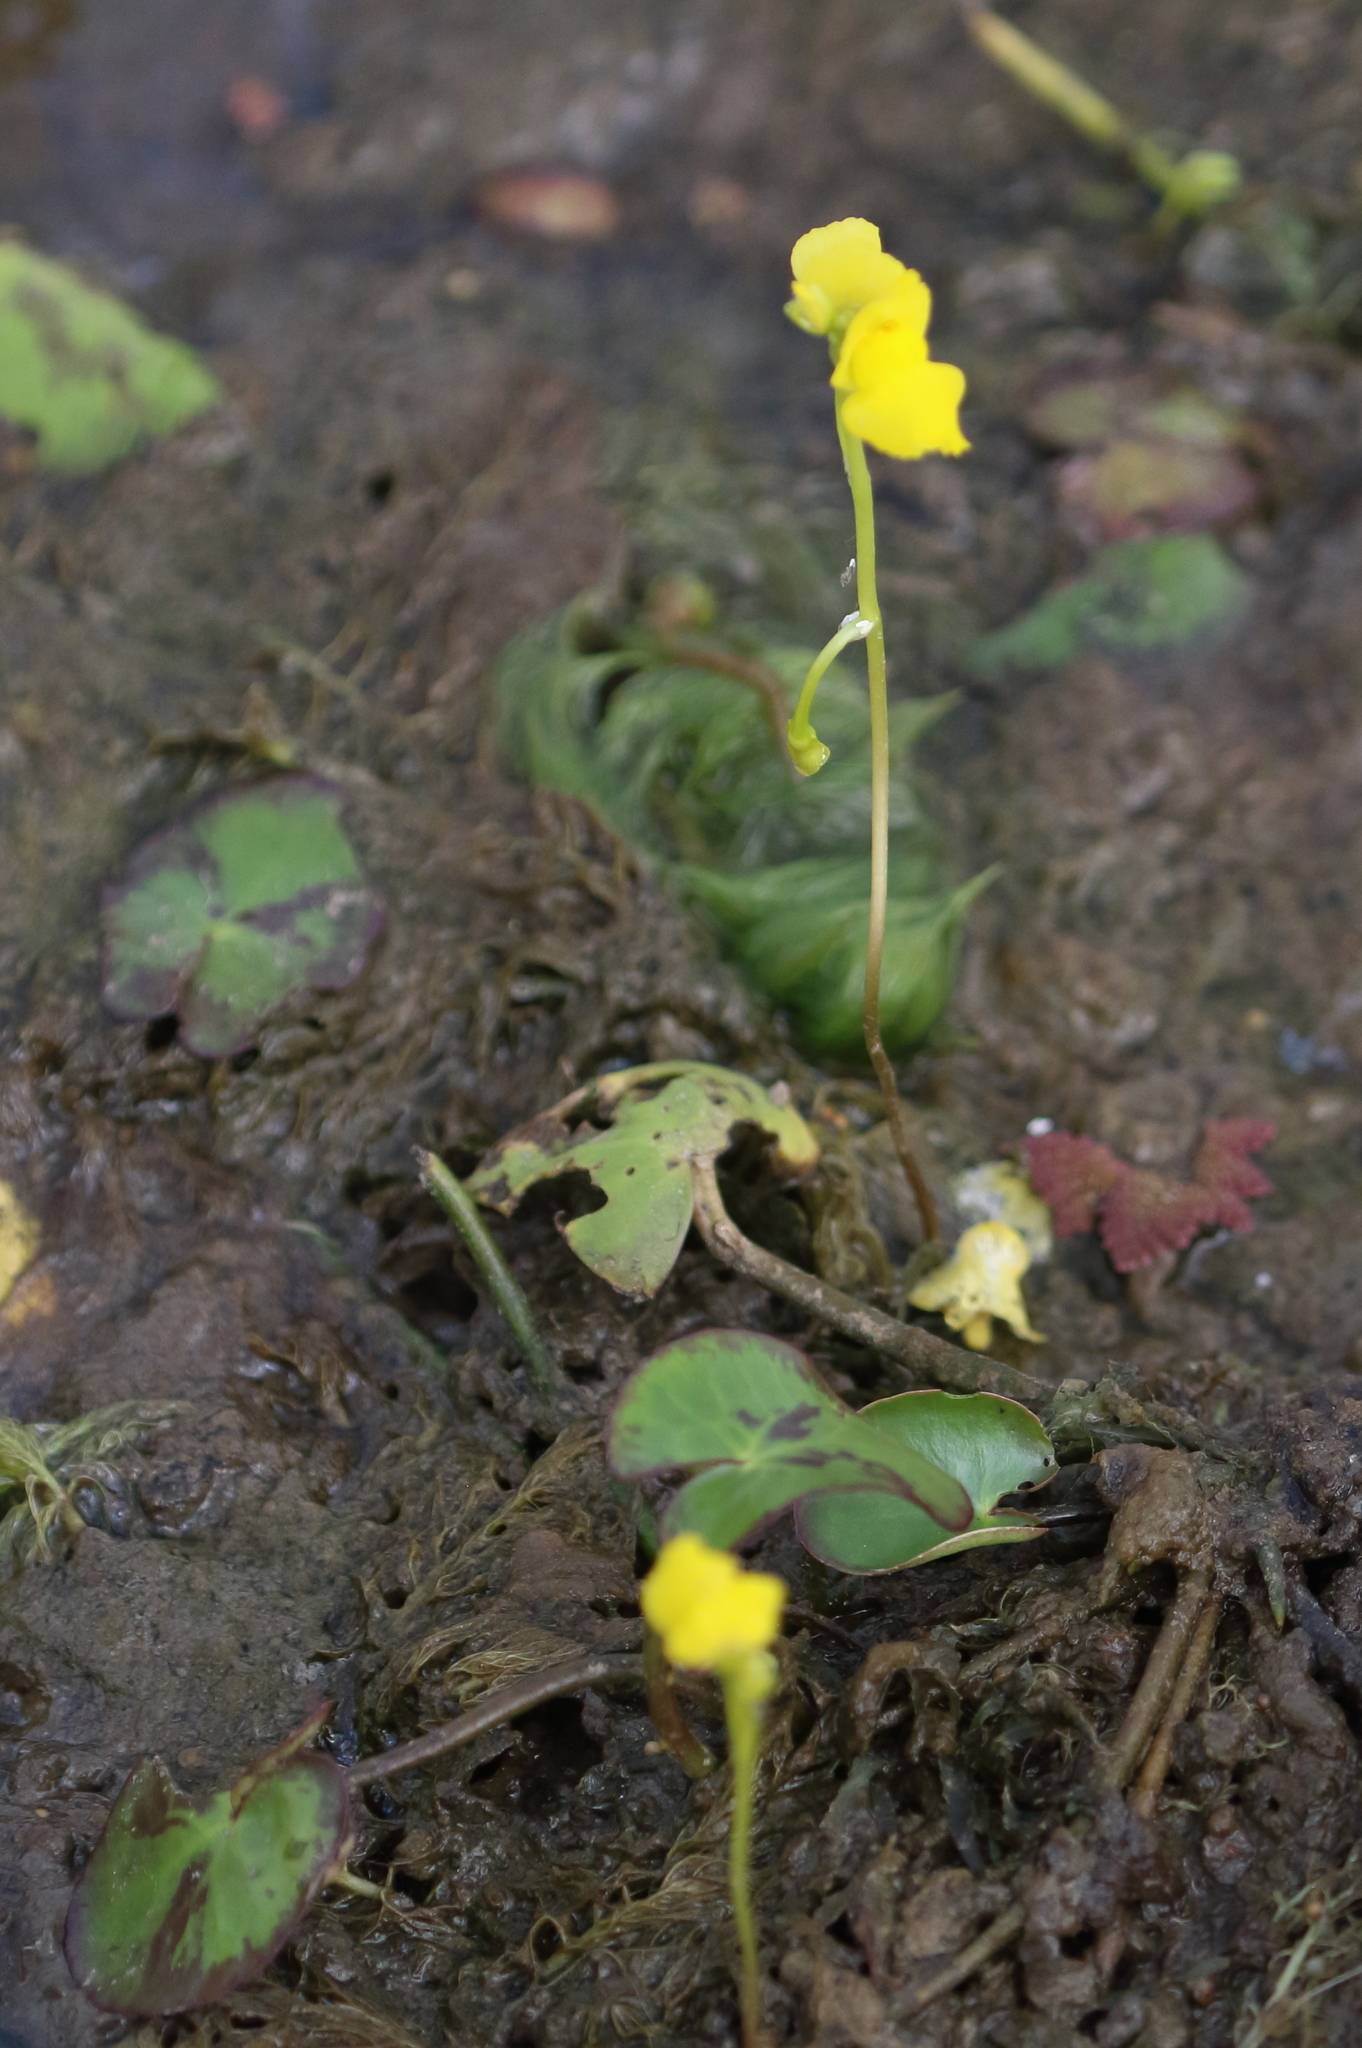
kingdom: Plantae
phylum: Tracheophyta
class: Magnoliopsida
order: Lamiales
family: Lentibulariaceae
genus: Utricularia
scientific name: Utricularia aurea
